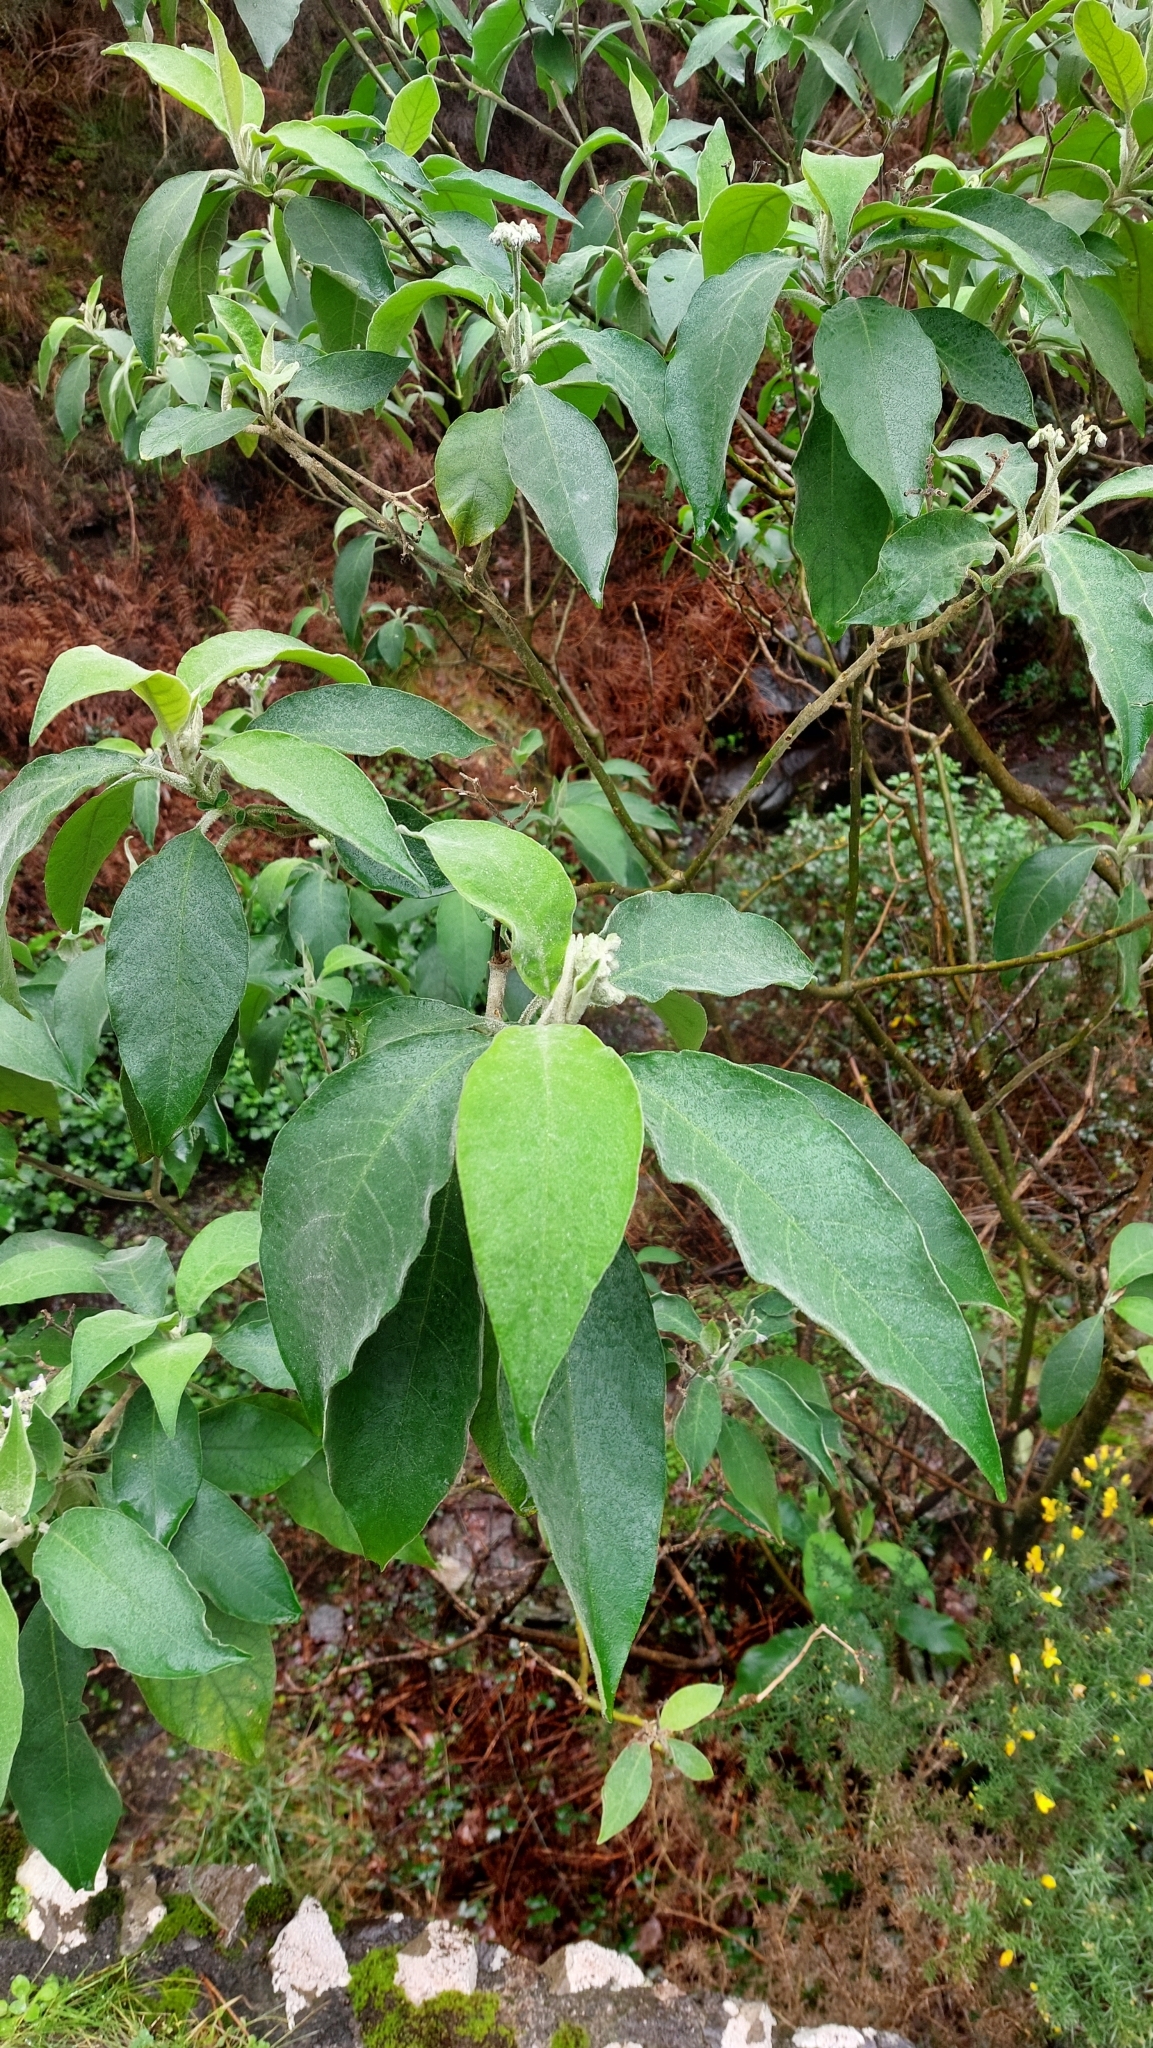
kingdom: Plantae
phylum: Tracheophyta
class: Magnoliopsida
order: Solanales
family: Solanaceae
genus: Solanum
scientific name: Solanum mauritianum
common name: Earleaf nightshade
